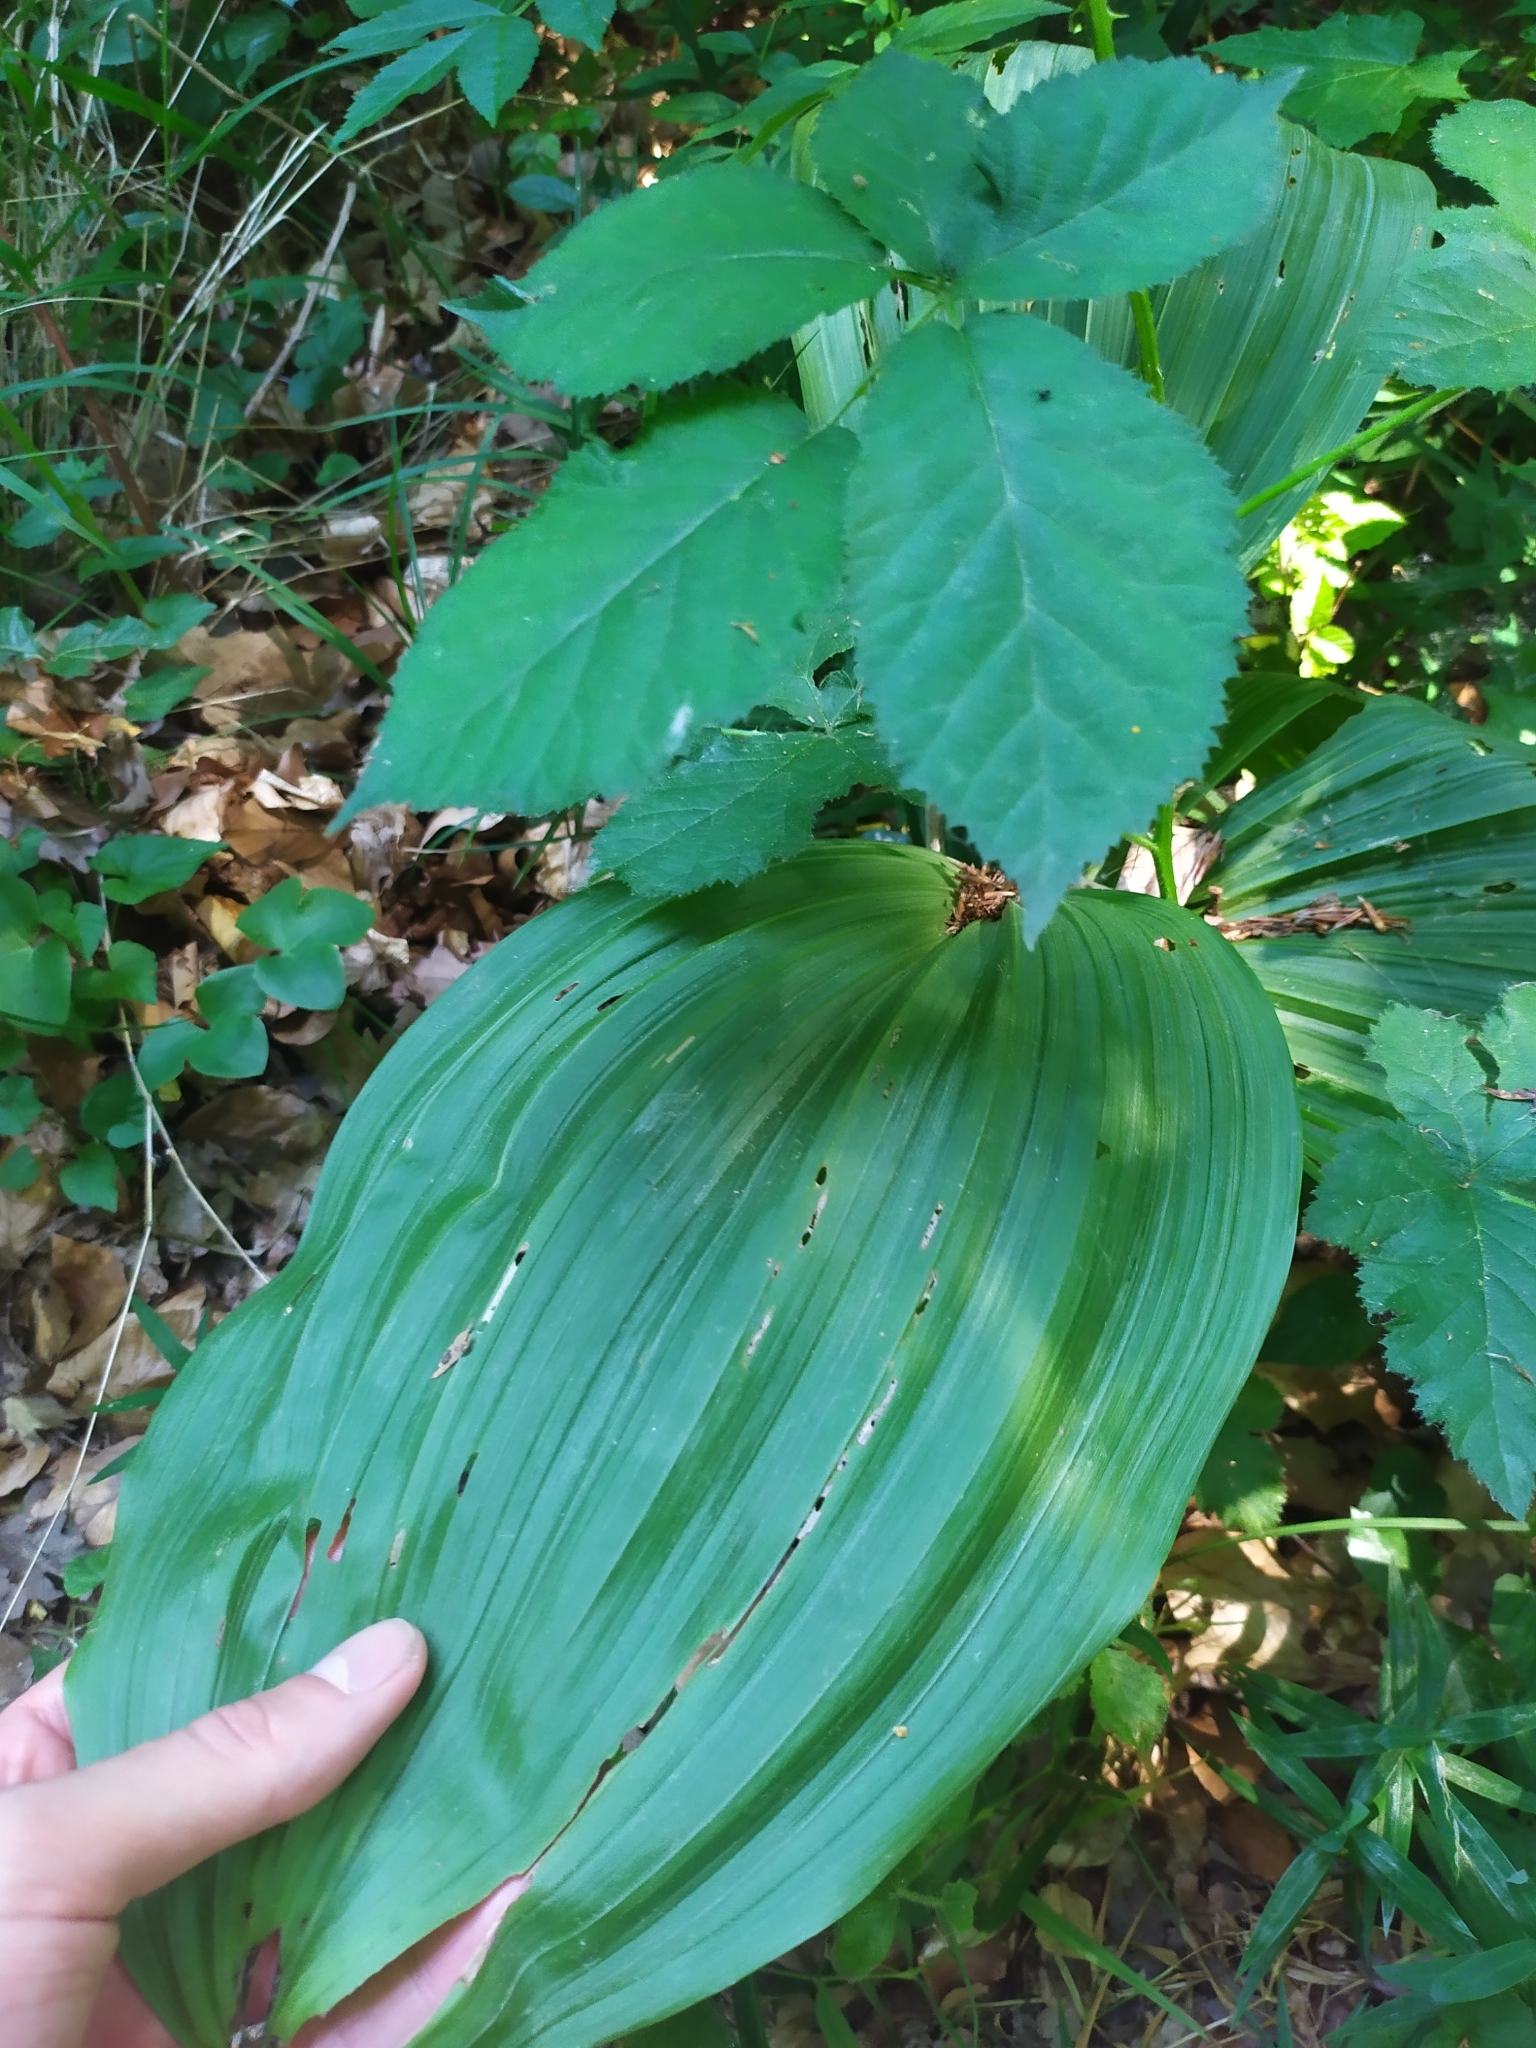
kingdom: Plantae
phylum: Tracheophyta
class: Liliopsida
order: Liliales
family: Melanthiaceae
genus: Veratrum
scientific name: Veratrum nigrum
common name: Black veratrum
